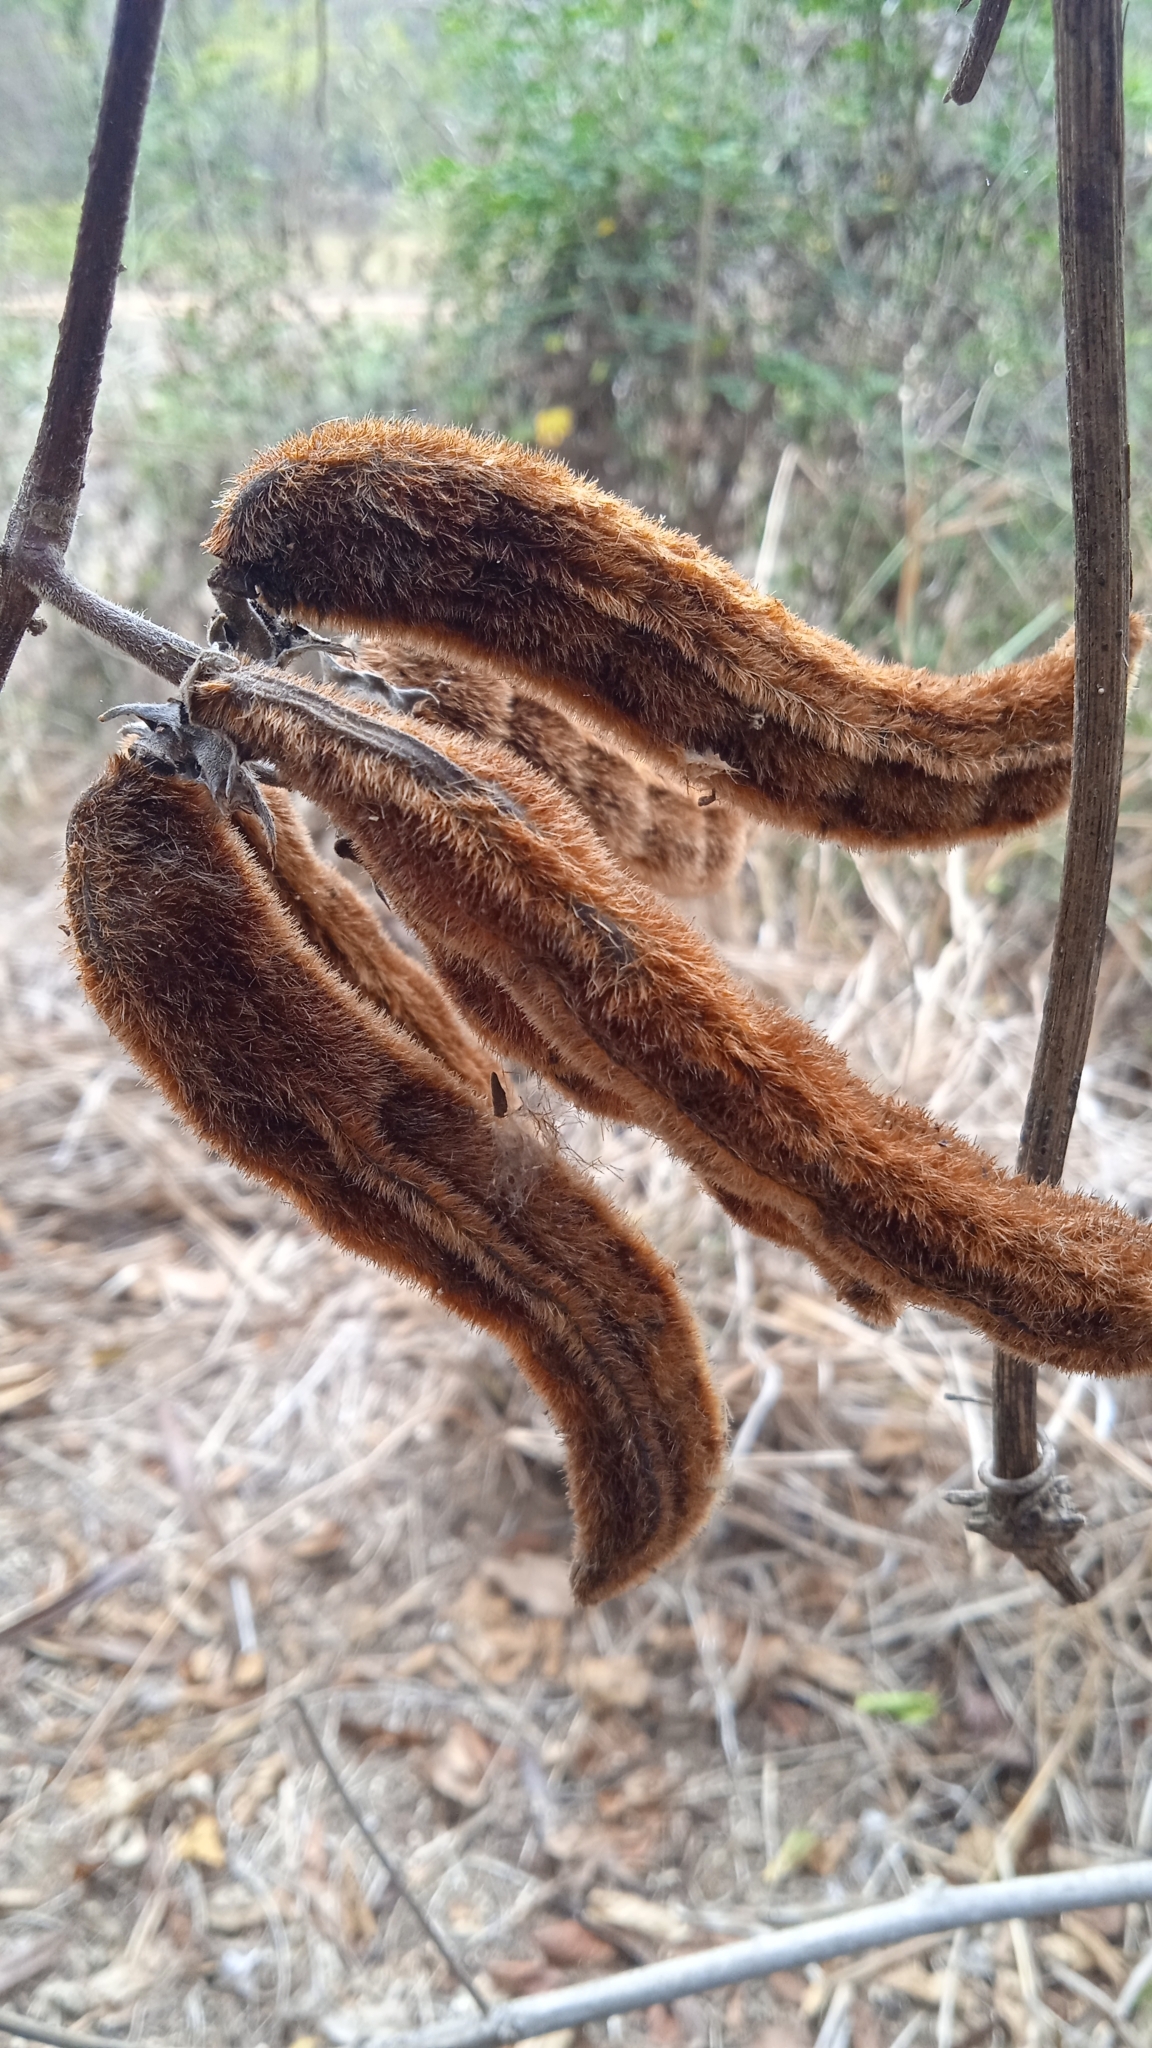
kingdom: Plantae
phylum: Tracheophyta
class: Magnoliopsida
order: Fabales
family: Fabaceae
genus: Mucuna
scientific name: Mucuna pruriens
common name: Cow-itch
